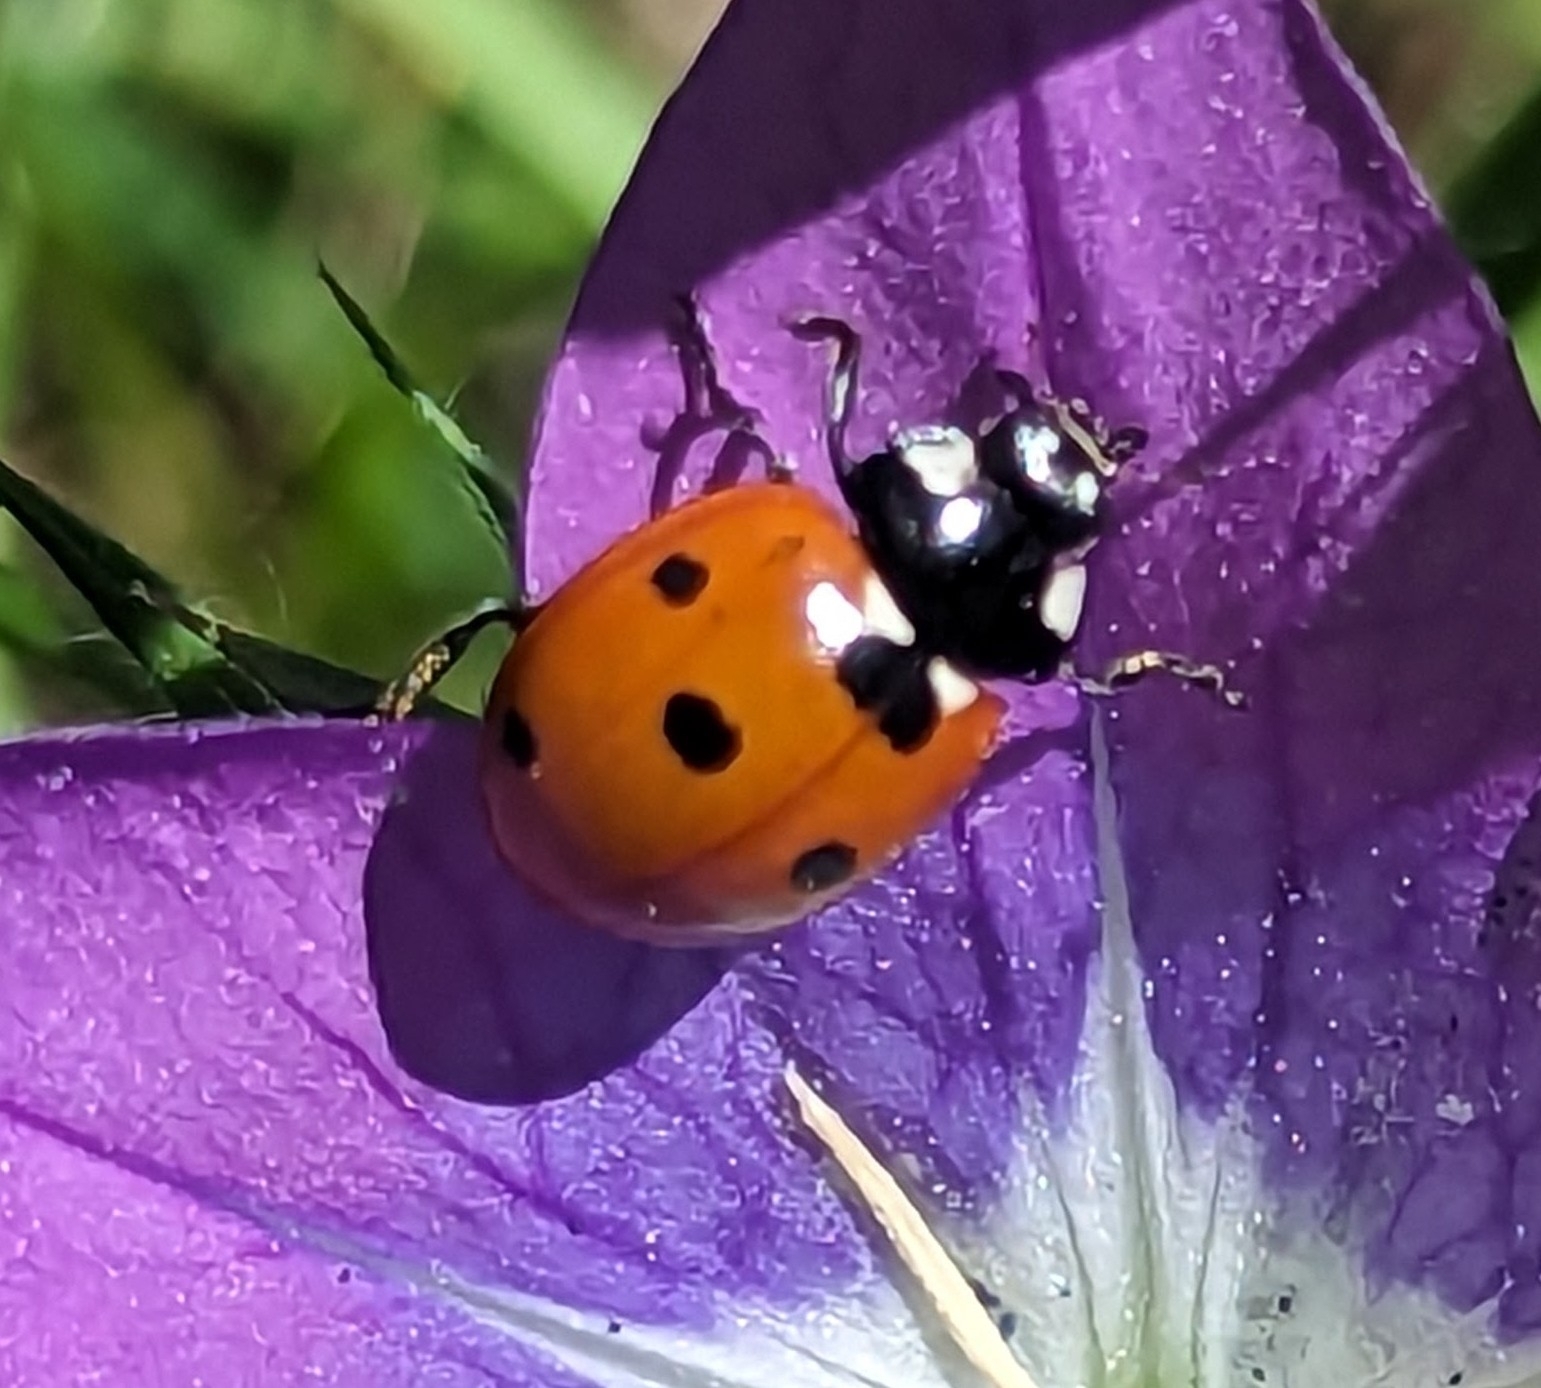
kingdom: Animalia
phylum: Arthropoda
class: Insecta
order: Coleoptera
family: Coccinellidae
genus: Coccinella
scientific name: Coccinella septempunctata
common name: Sevenspotted lady beetle
